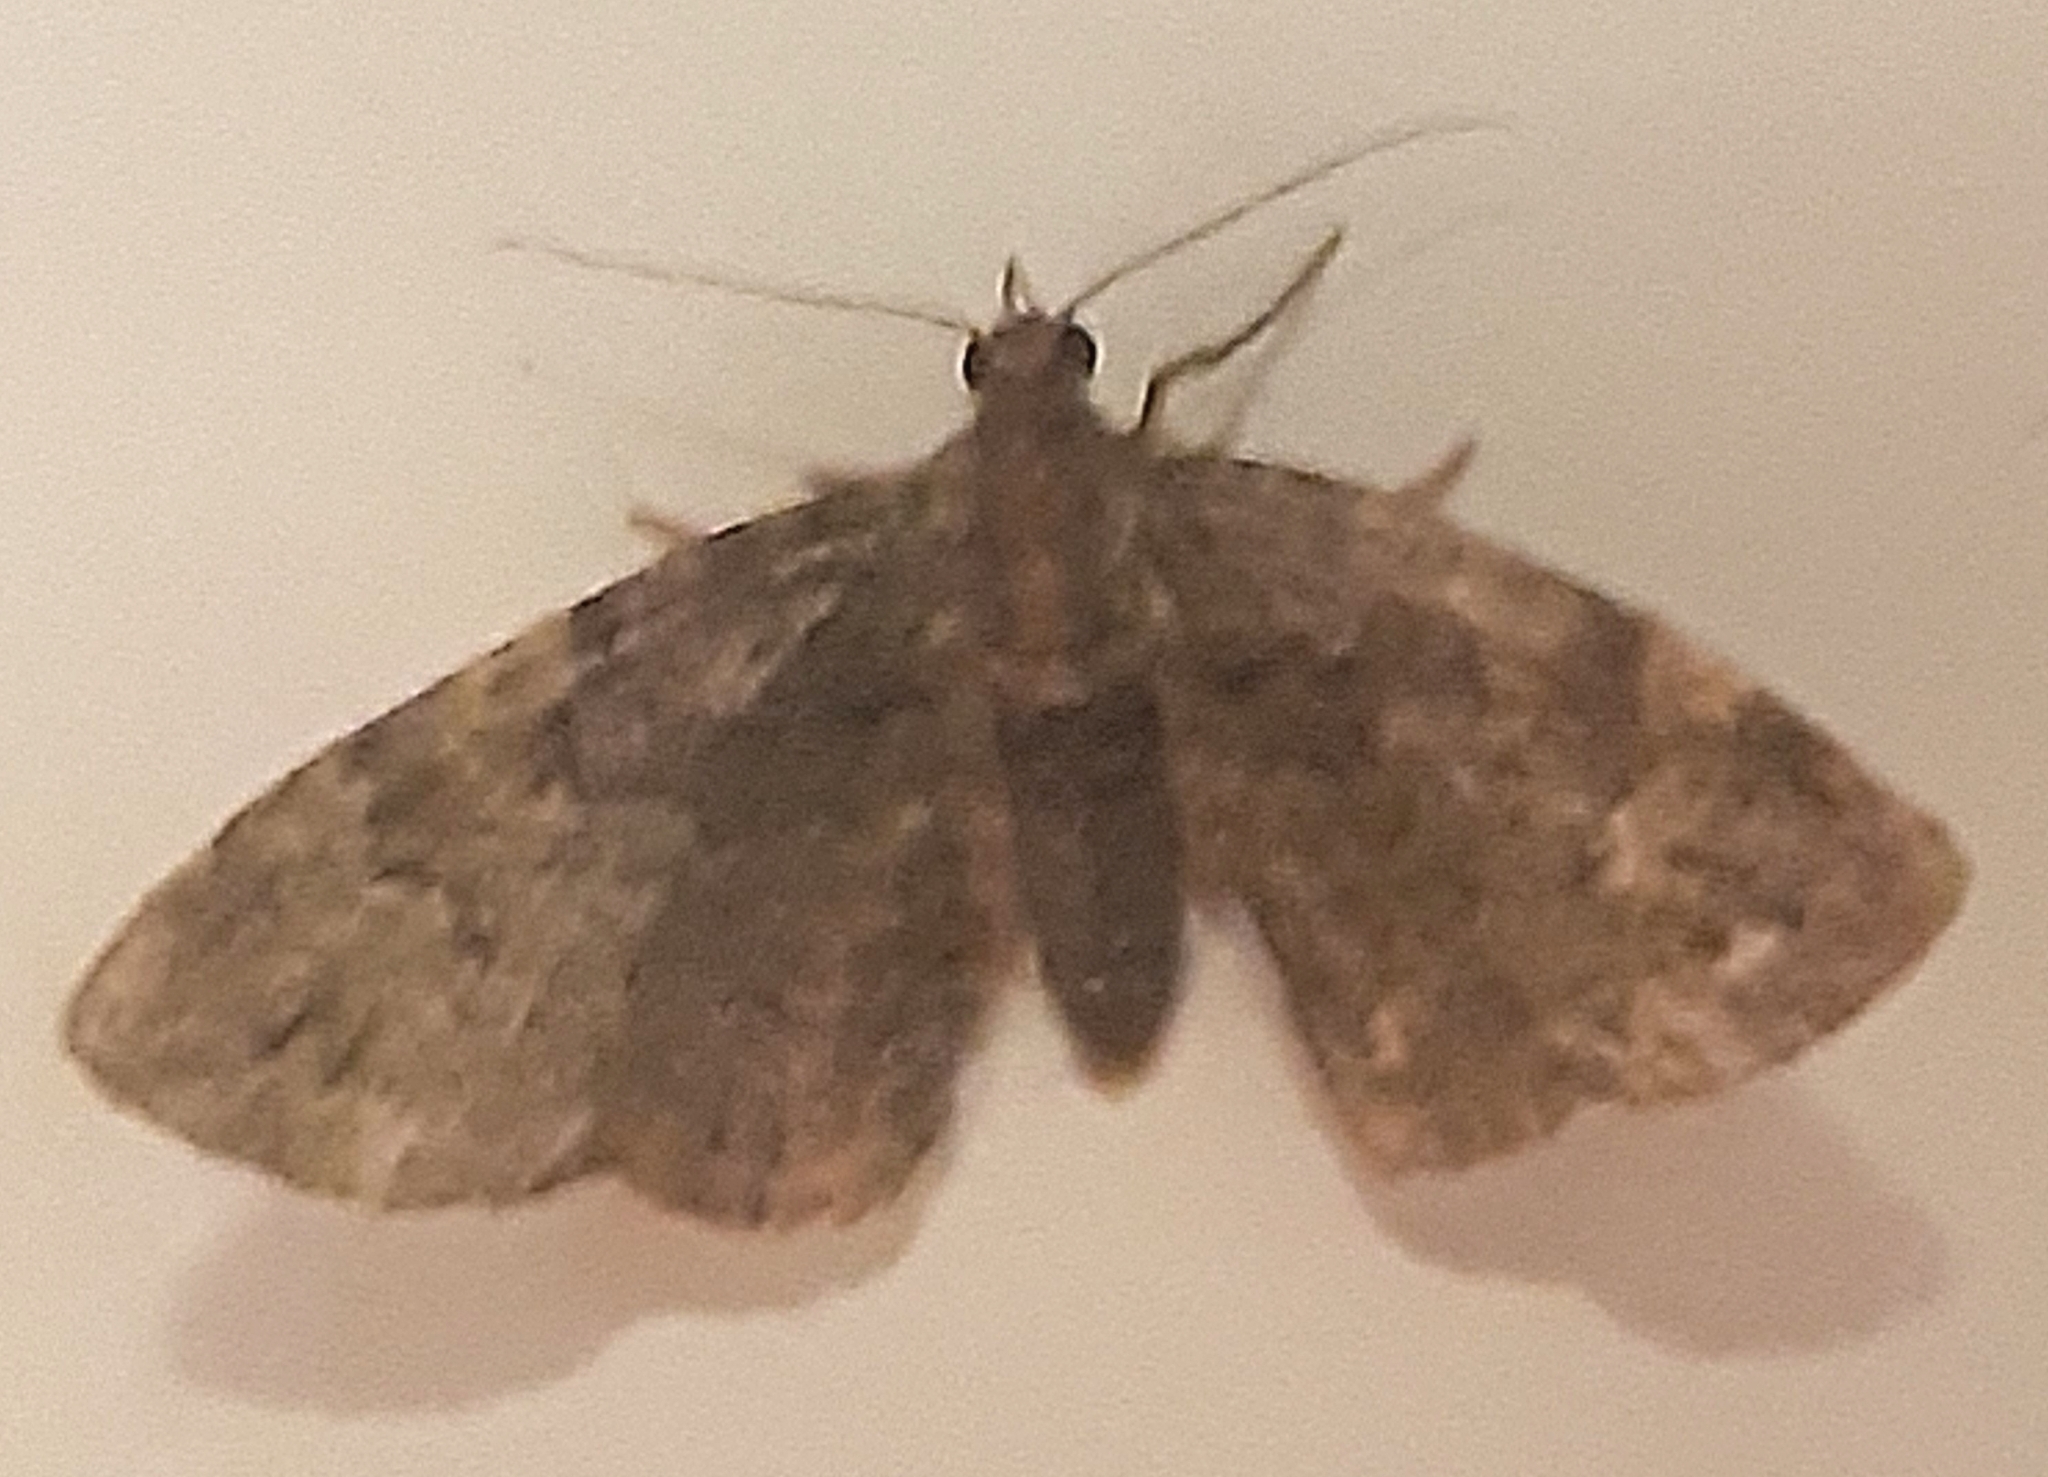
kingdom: Animalia
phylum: Arthropoda
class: Insecta
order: Lepidoptera
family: Geometridae
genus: Chloroclystis
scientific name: Chloroclystis v-ata
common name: V-pug
